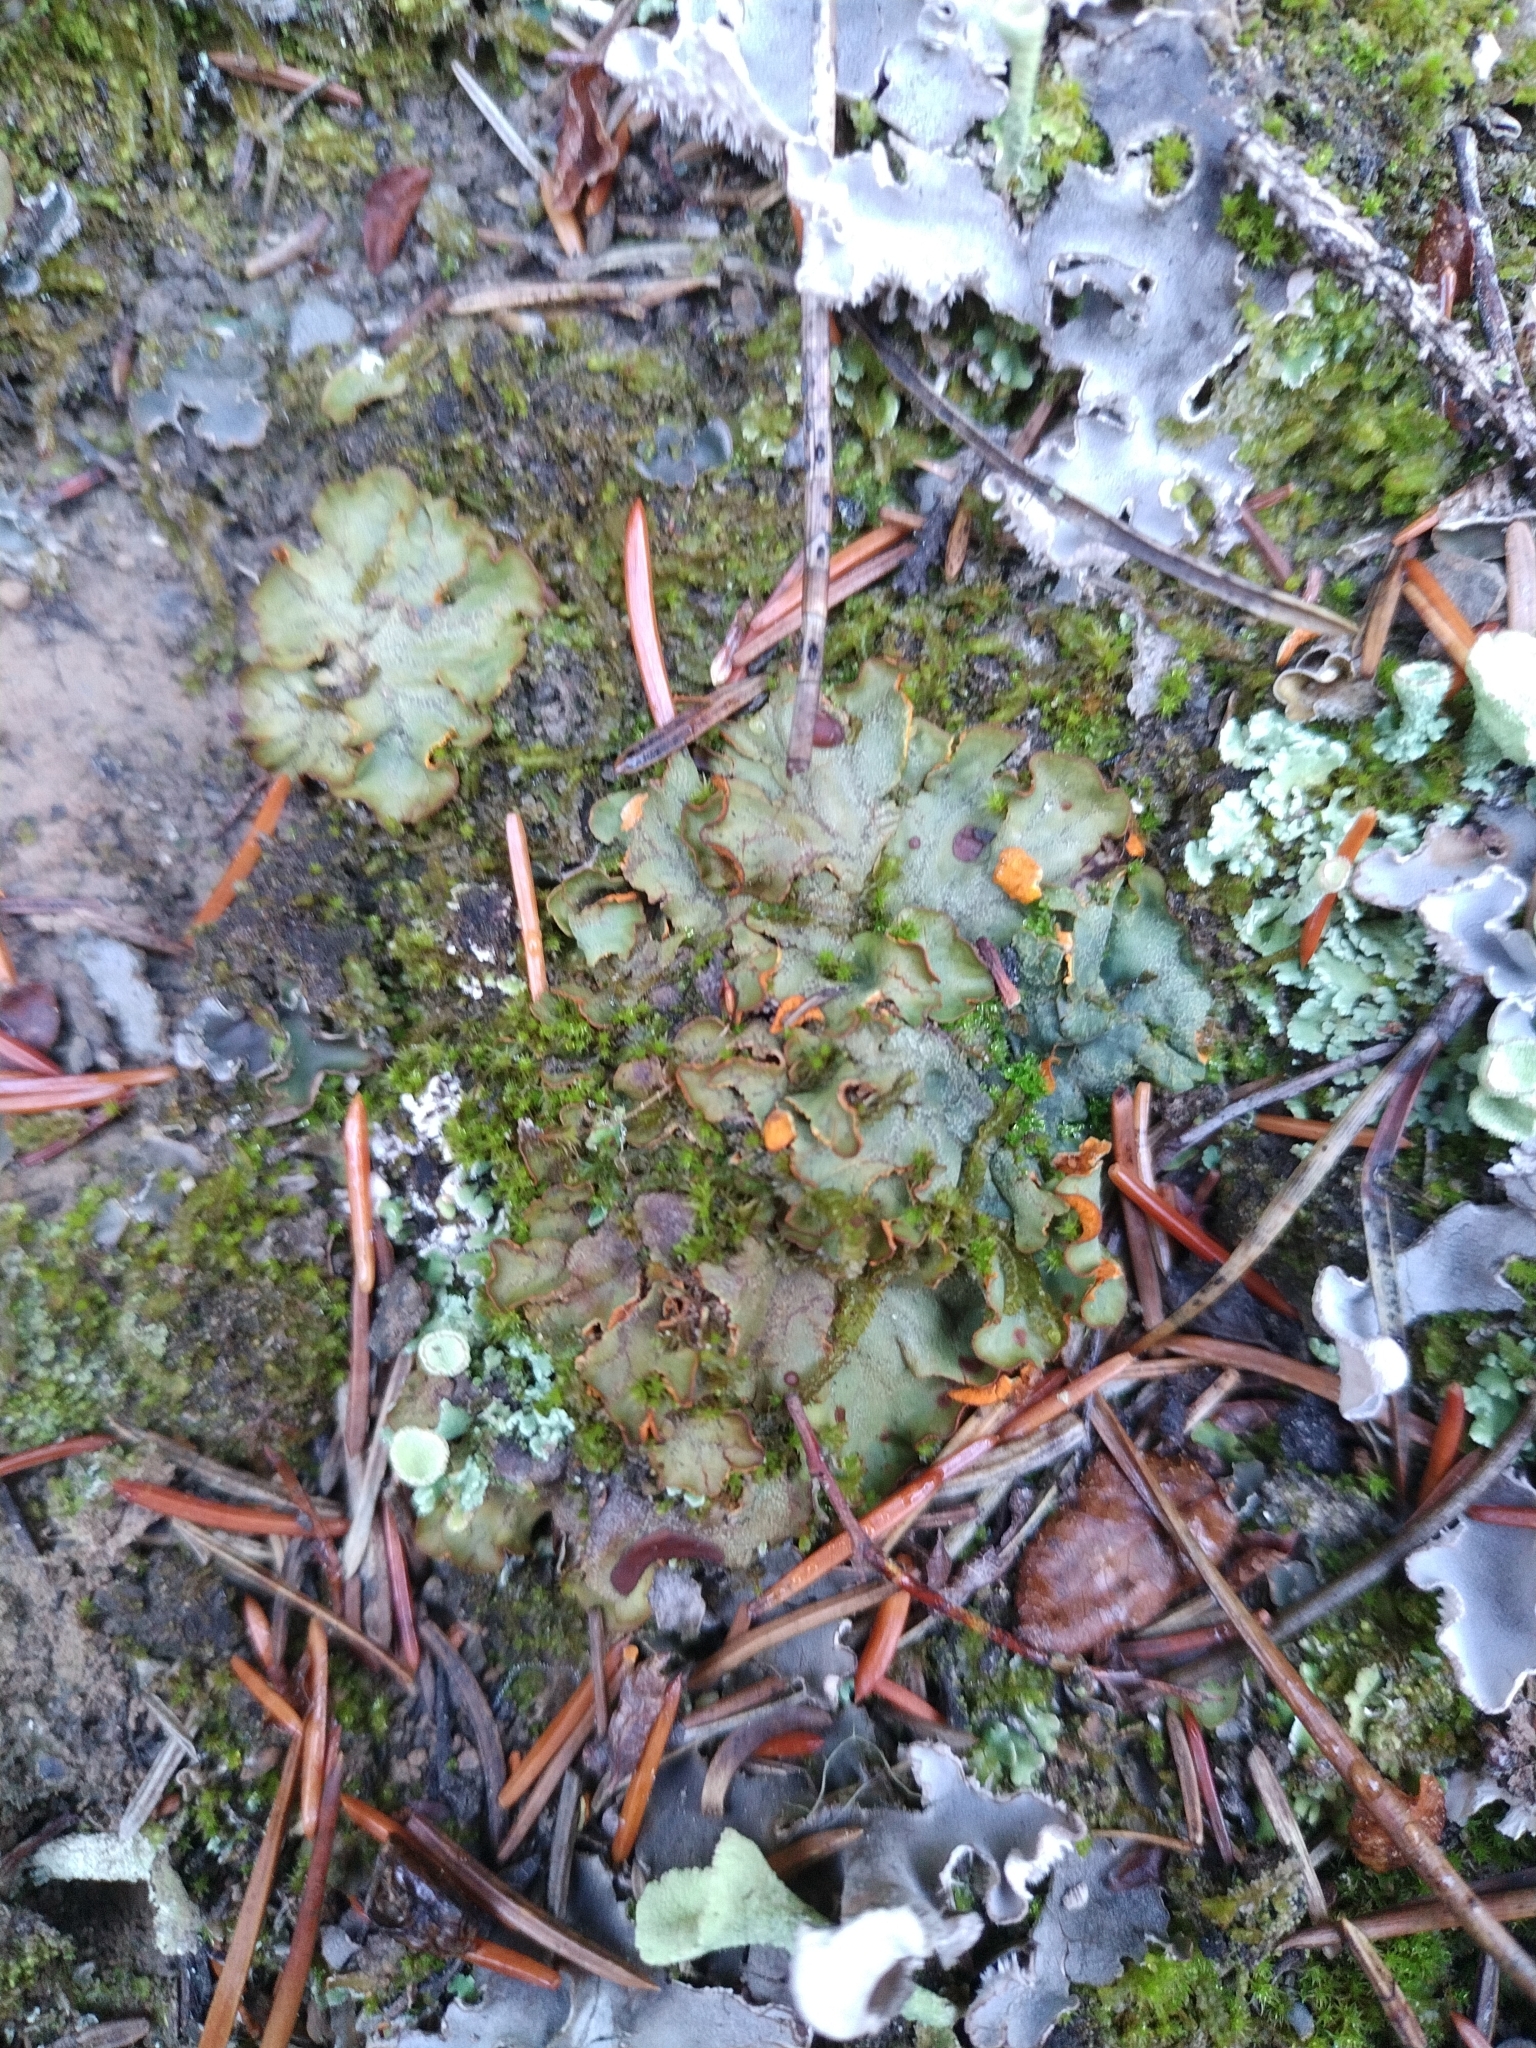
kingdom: Fungi
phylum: Ascomycota
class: Lecanoromycetes
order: Peltigerales
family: Peltigeraceae
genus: Solorina
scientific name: Solorina crocea
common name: Mountain saffron
